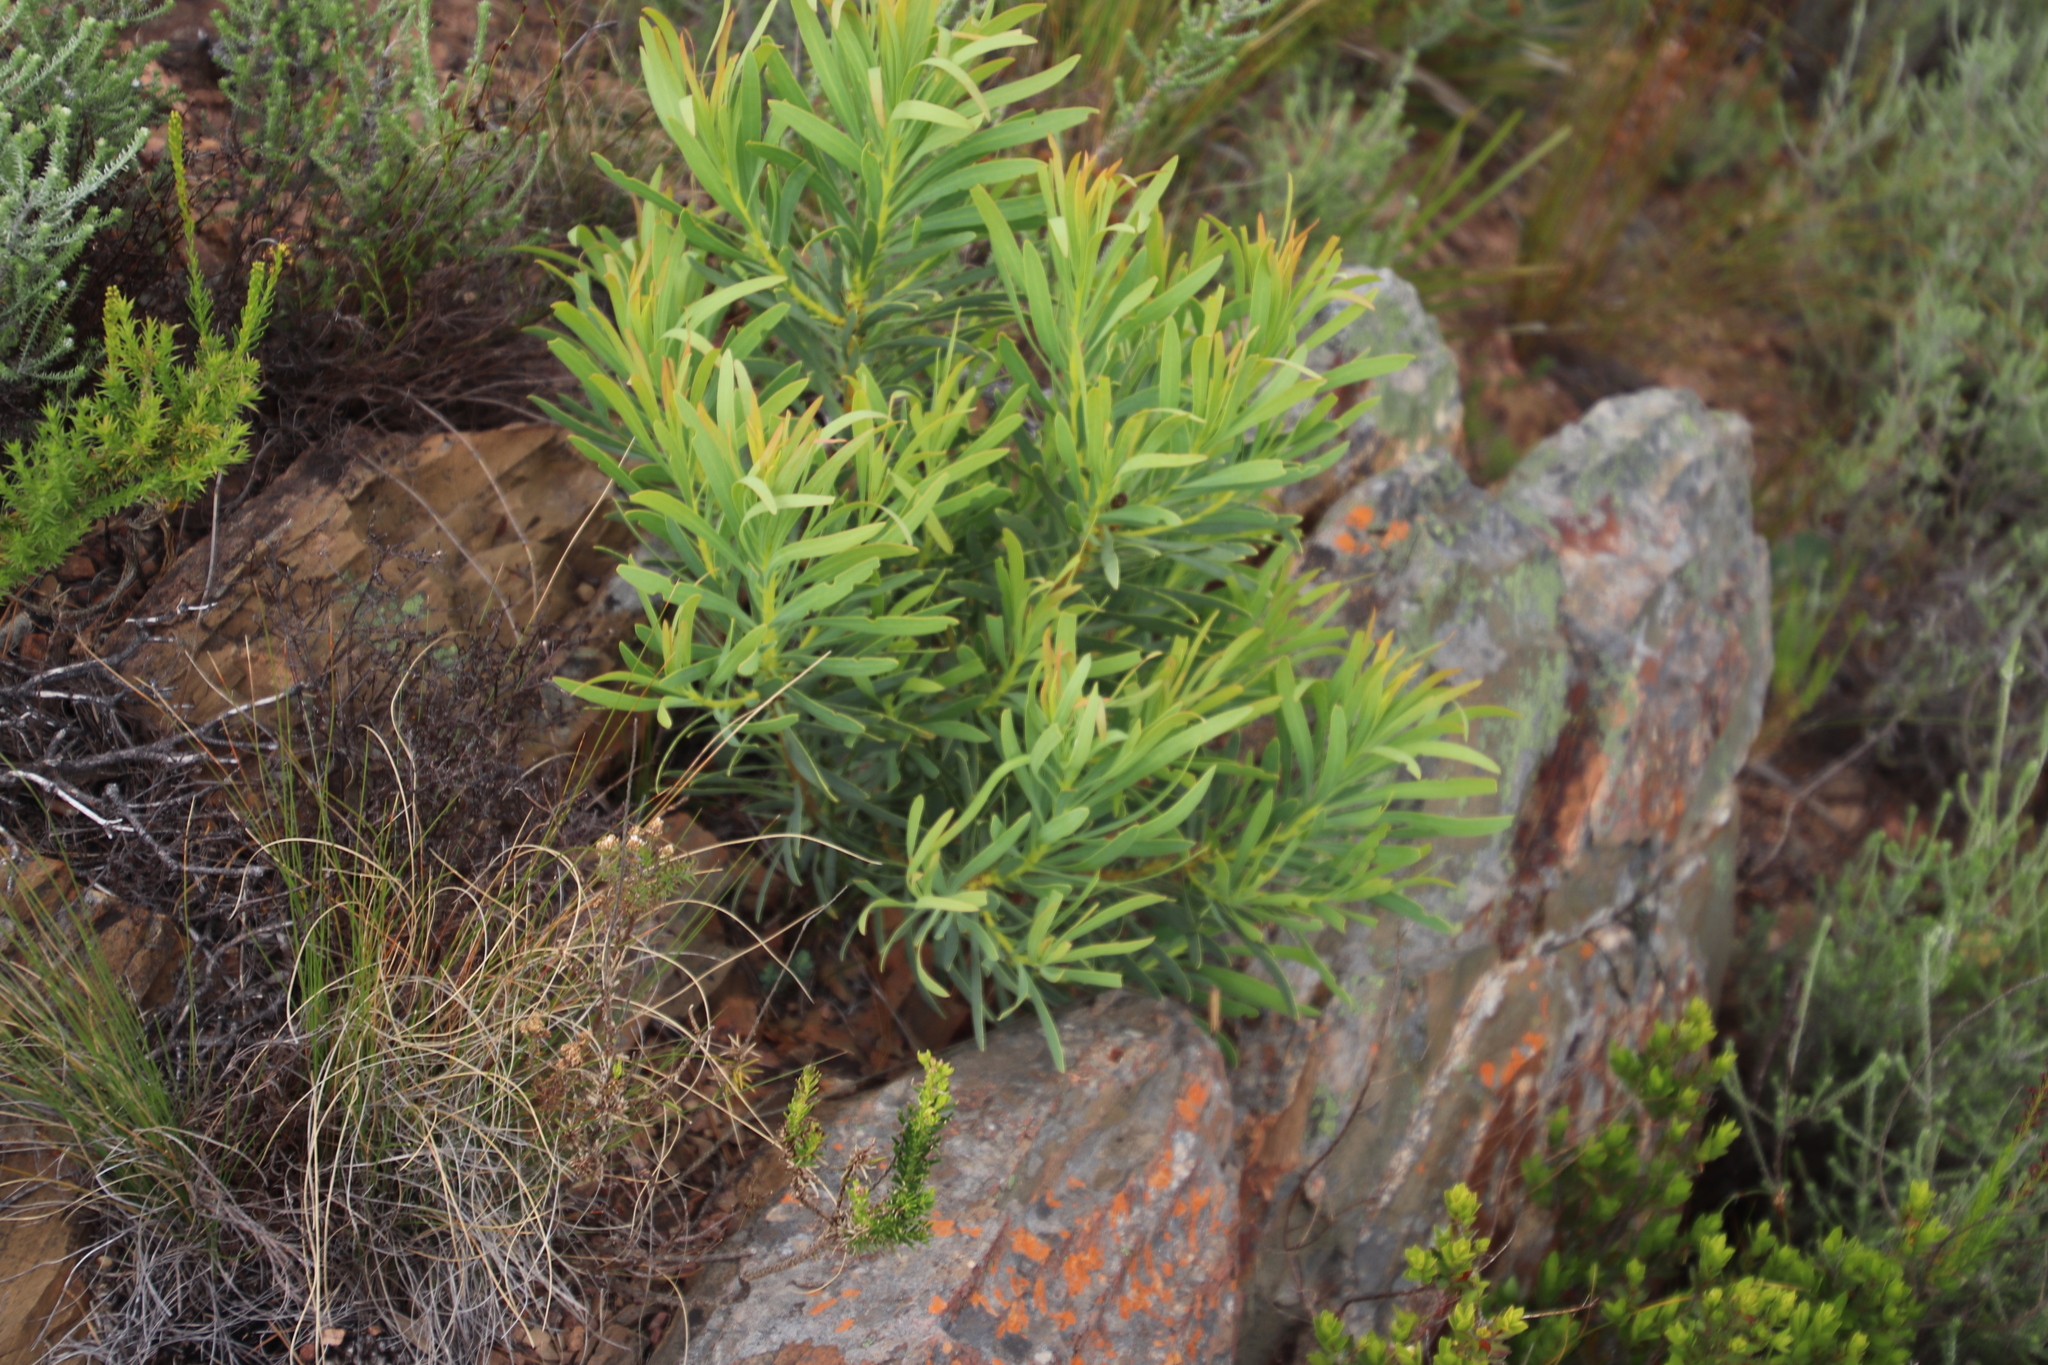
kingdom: Plantae
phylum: Tracheophyta
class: Magnoliopsida
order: Proteales
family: Proteaceae
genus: Protea
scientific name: Protea repens
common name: Sugarbush
